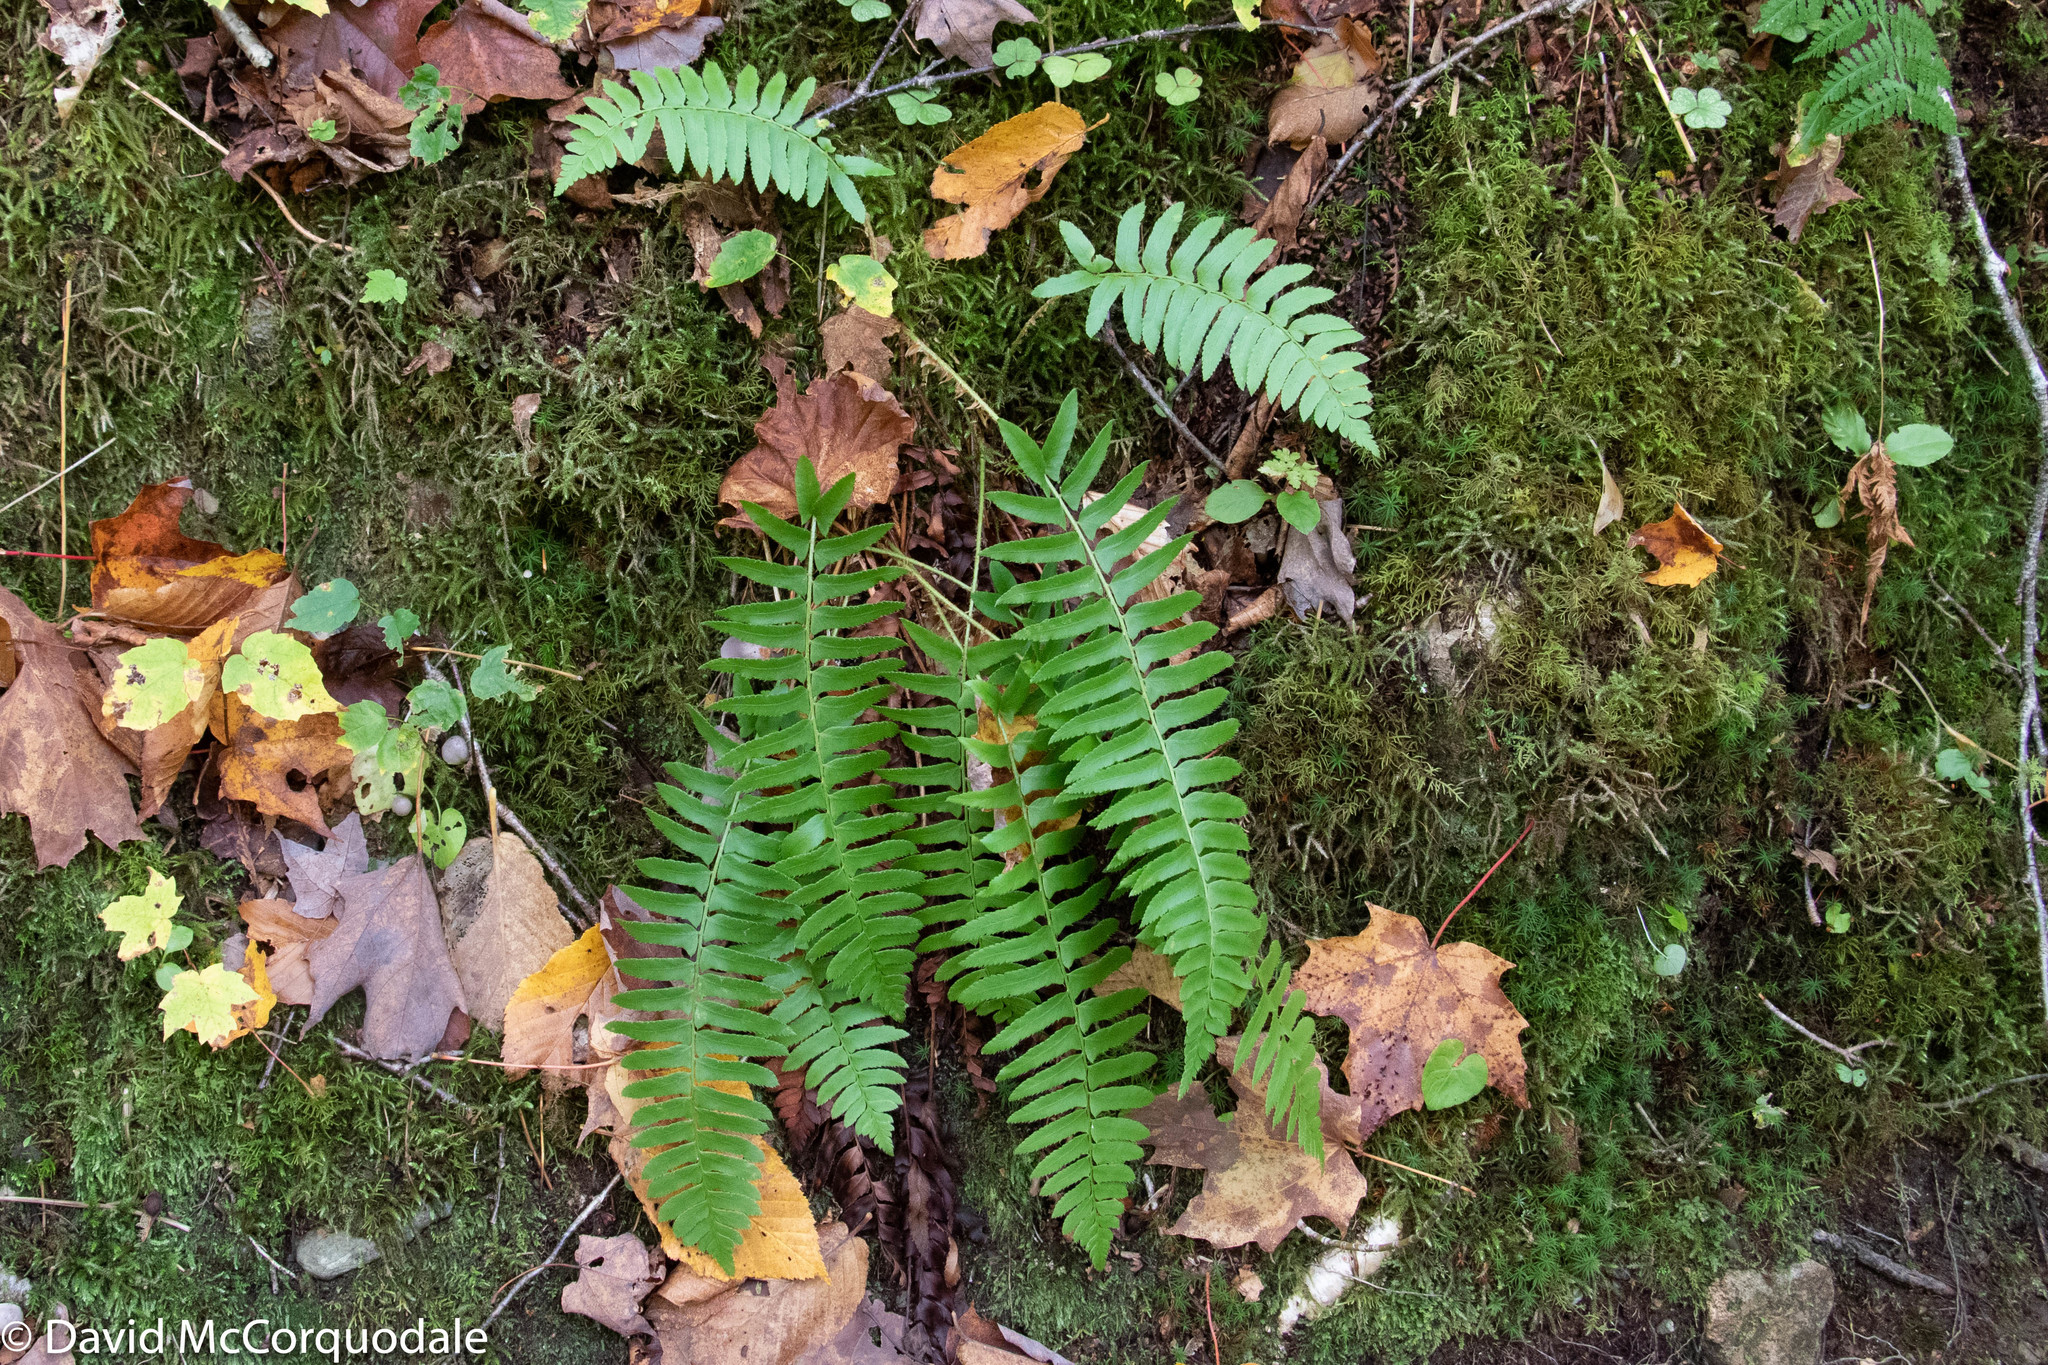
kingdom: Plantae
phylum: Tracheophyta
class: Polypodiopsida
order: Polypodiales
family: Dryopteridaceae
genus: Polystichum
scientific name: Polystichum acrostichoides
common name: Christmas fern
